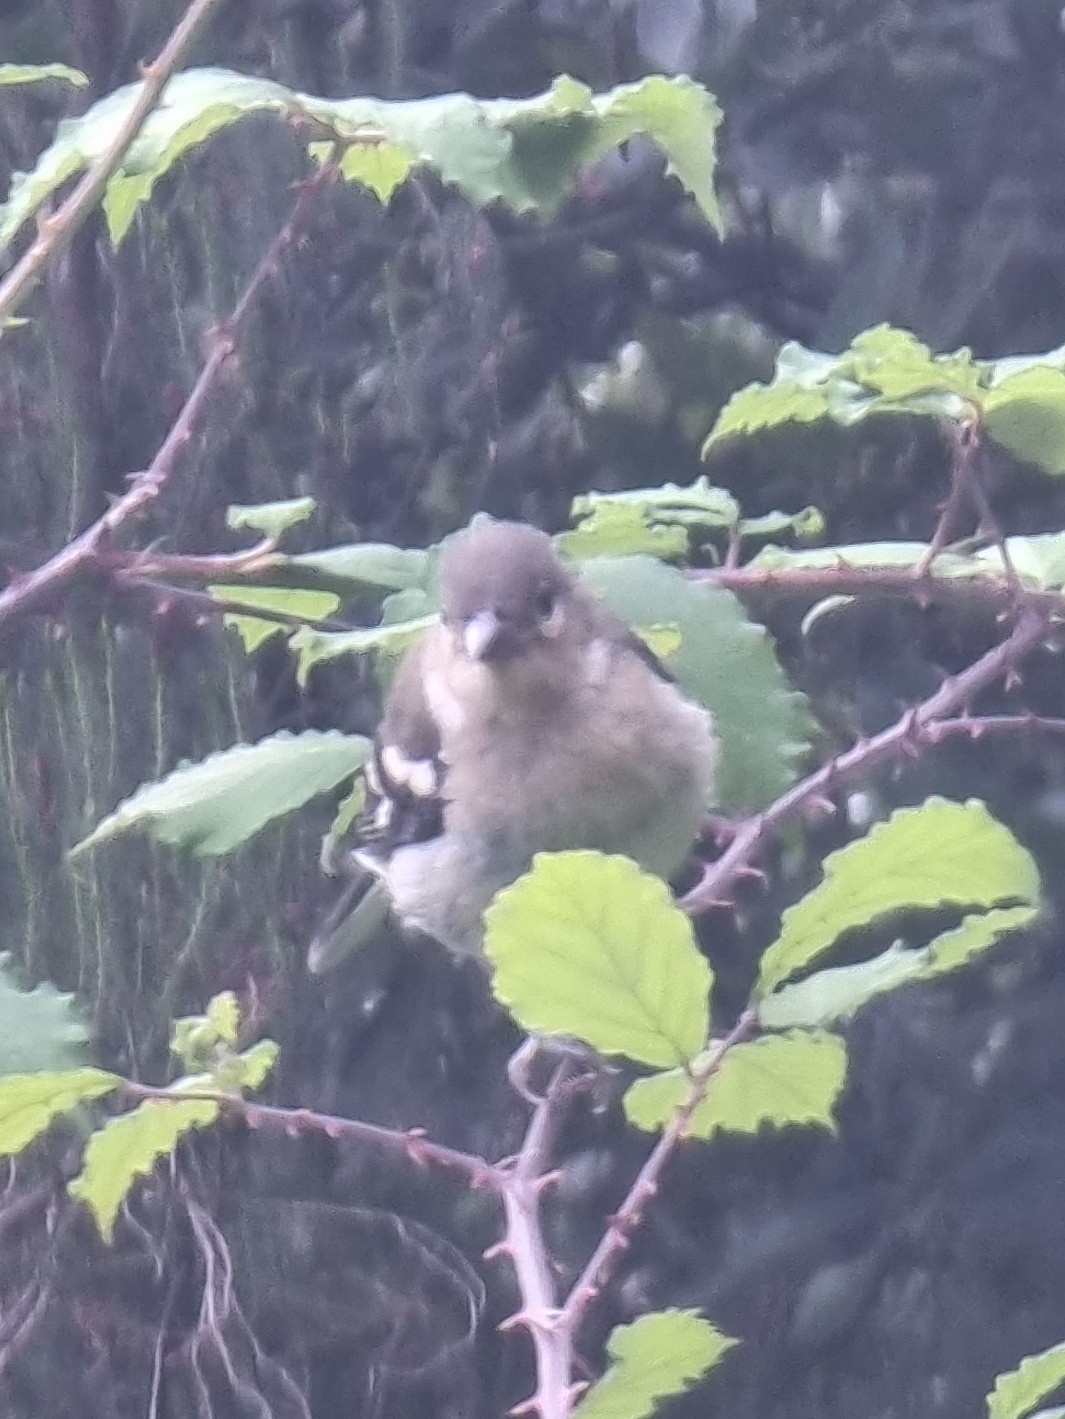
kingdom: Animalia
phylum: Chordata
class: Aves
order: Passeriformes
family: Fringillidae
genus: Fringilla
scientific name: Fringilla maderensis
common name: Madeira chaffinch
